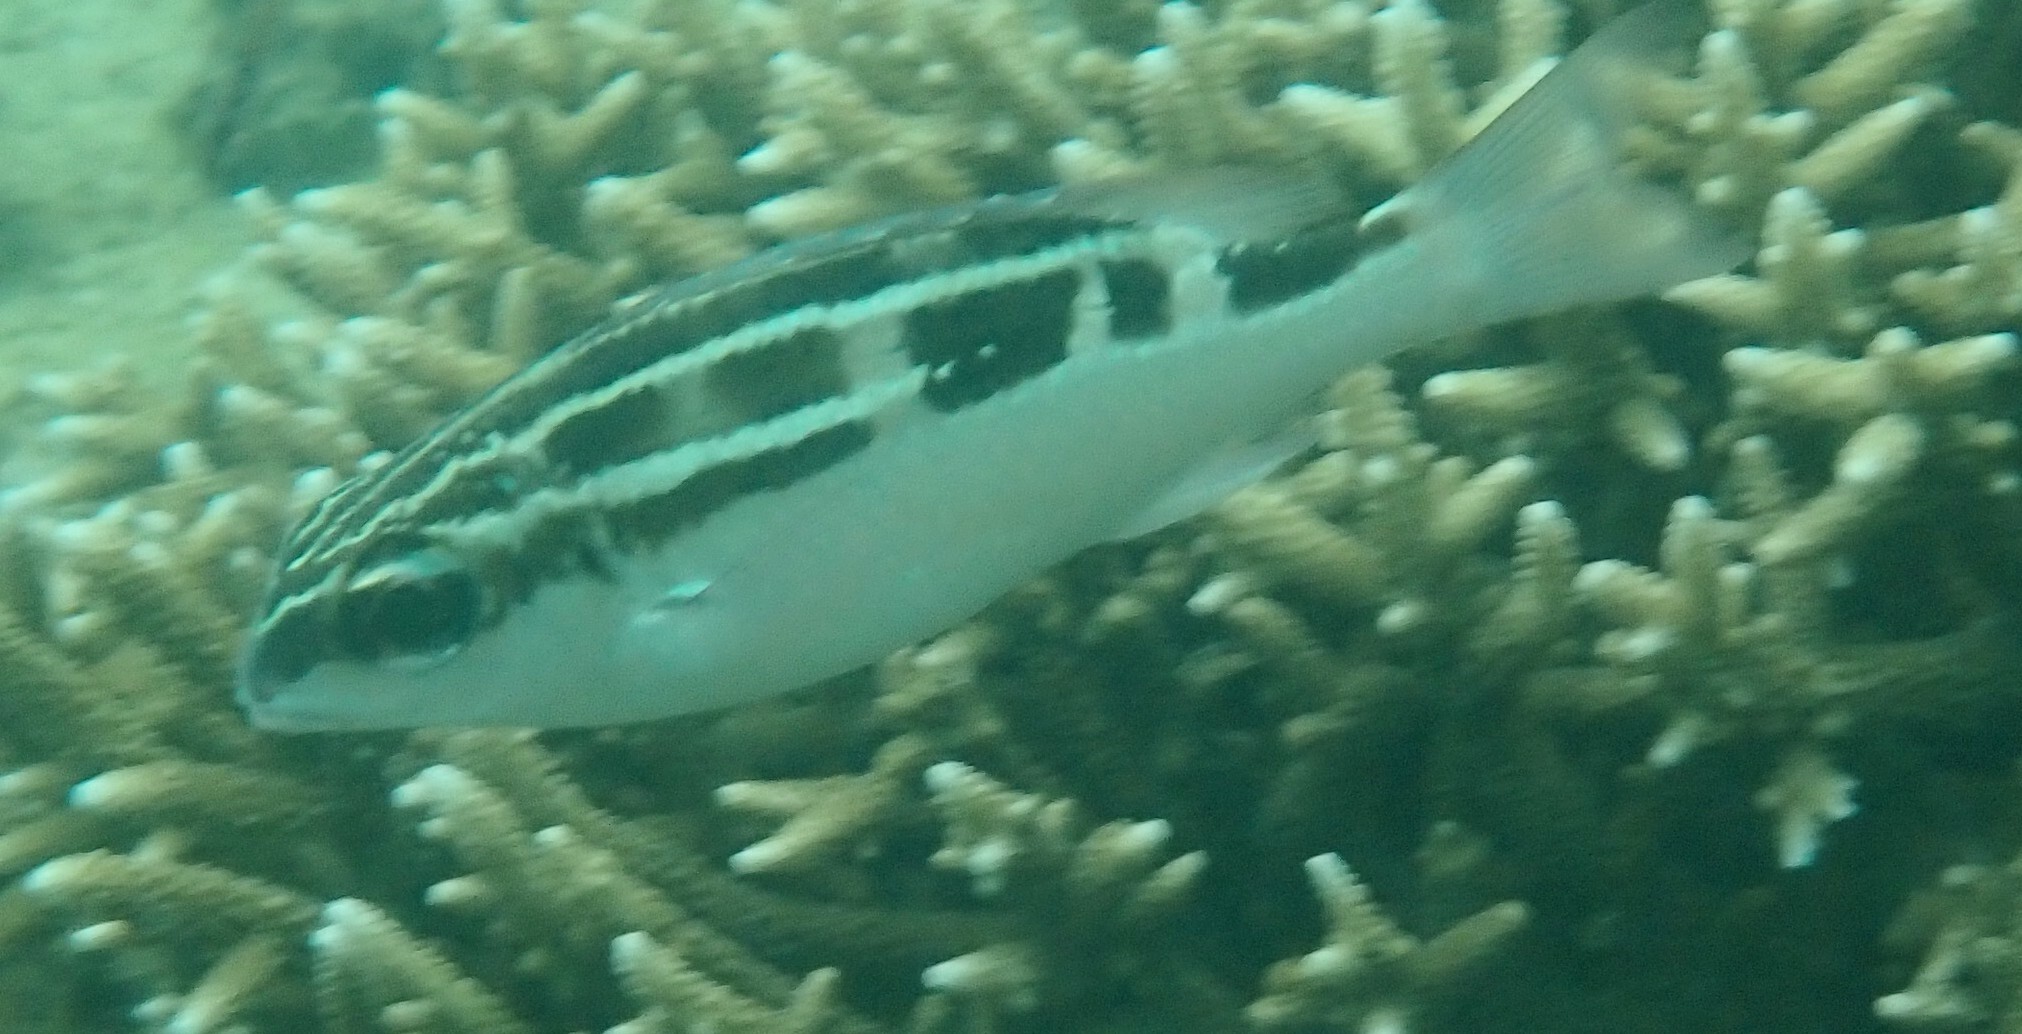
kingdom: Animalia
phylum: Chordata
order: Perciformes
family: Nemipteridae
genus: Scolopsis
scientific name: Scolopsis lineata
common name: Striped monocle bream
